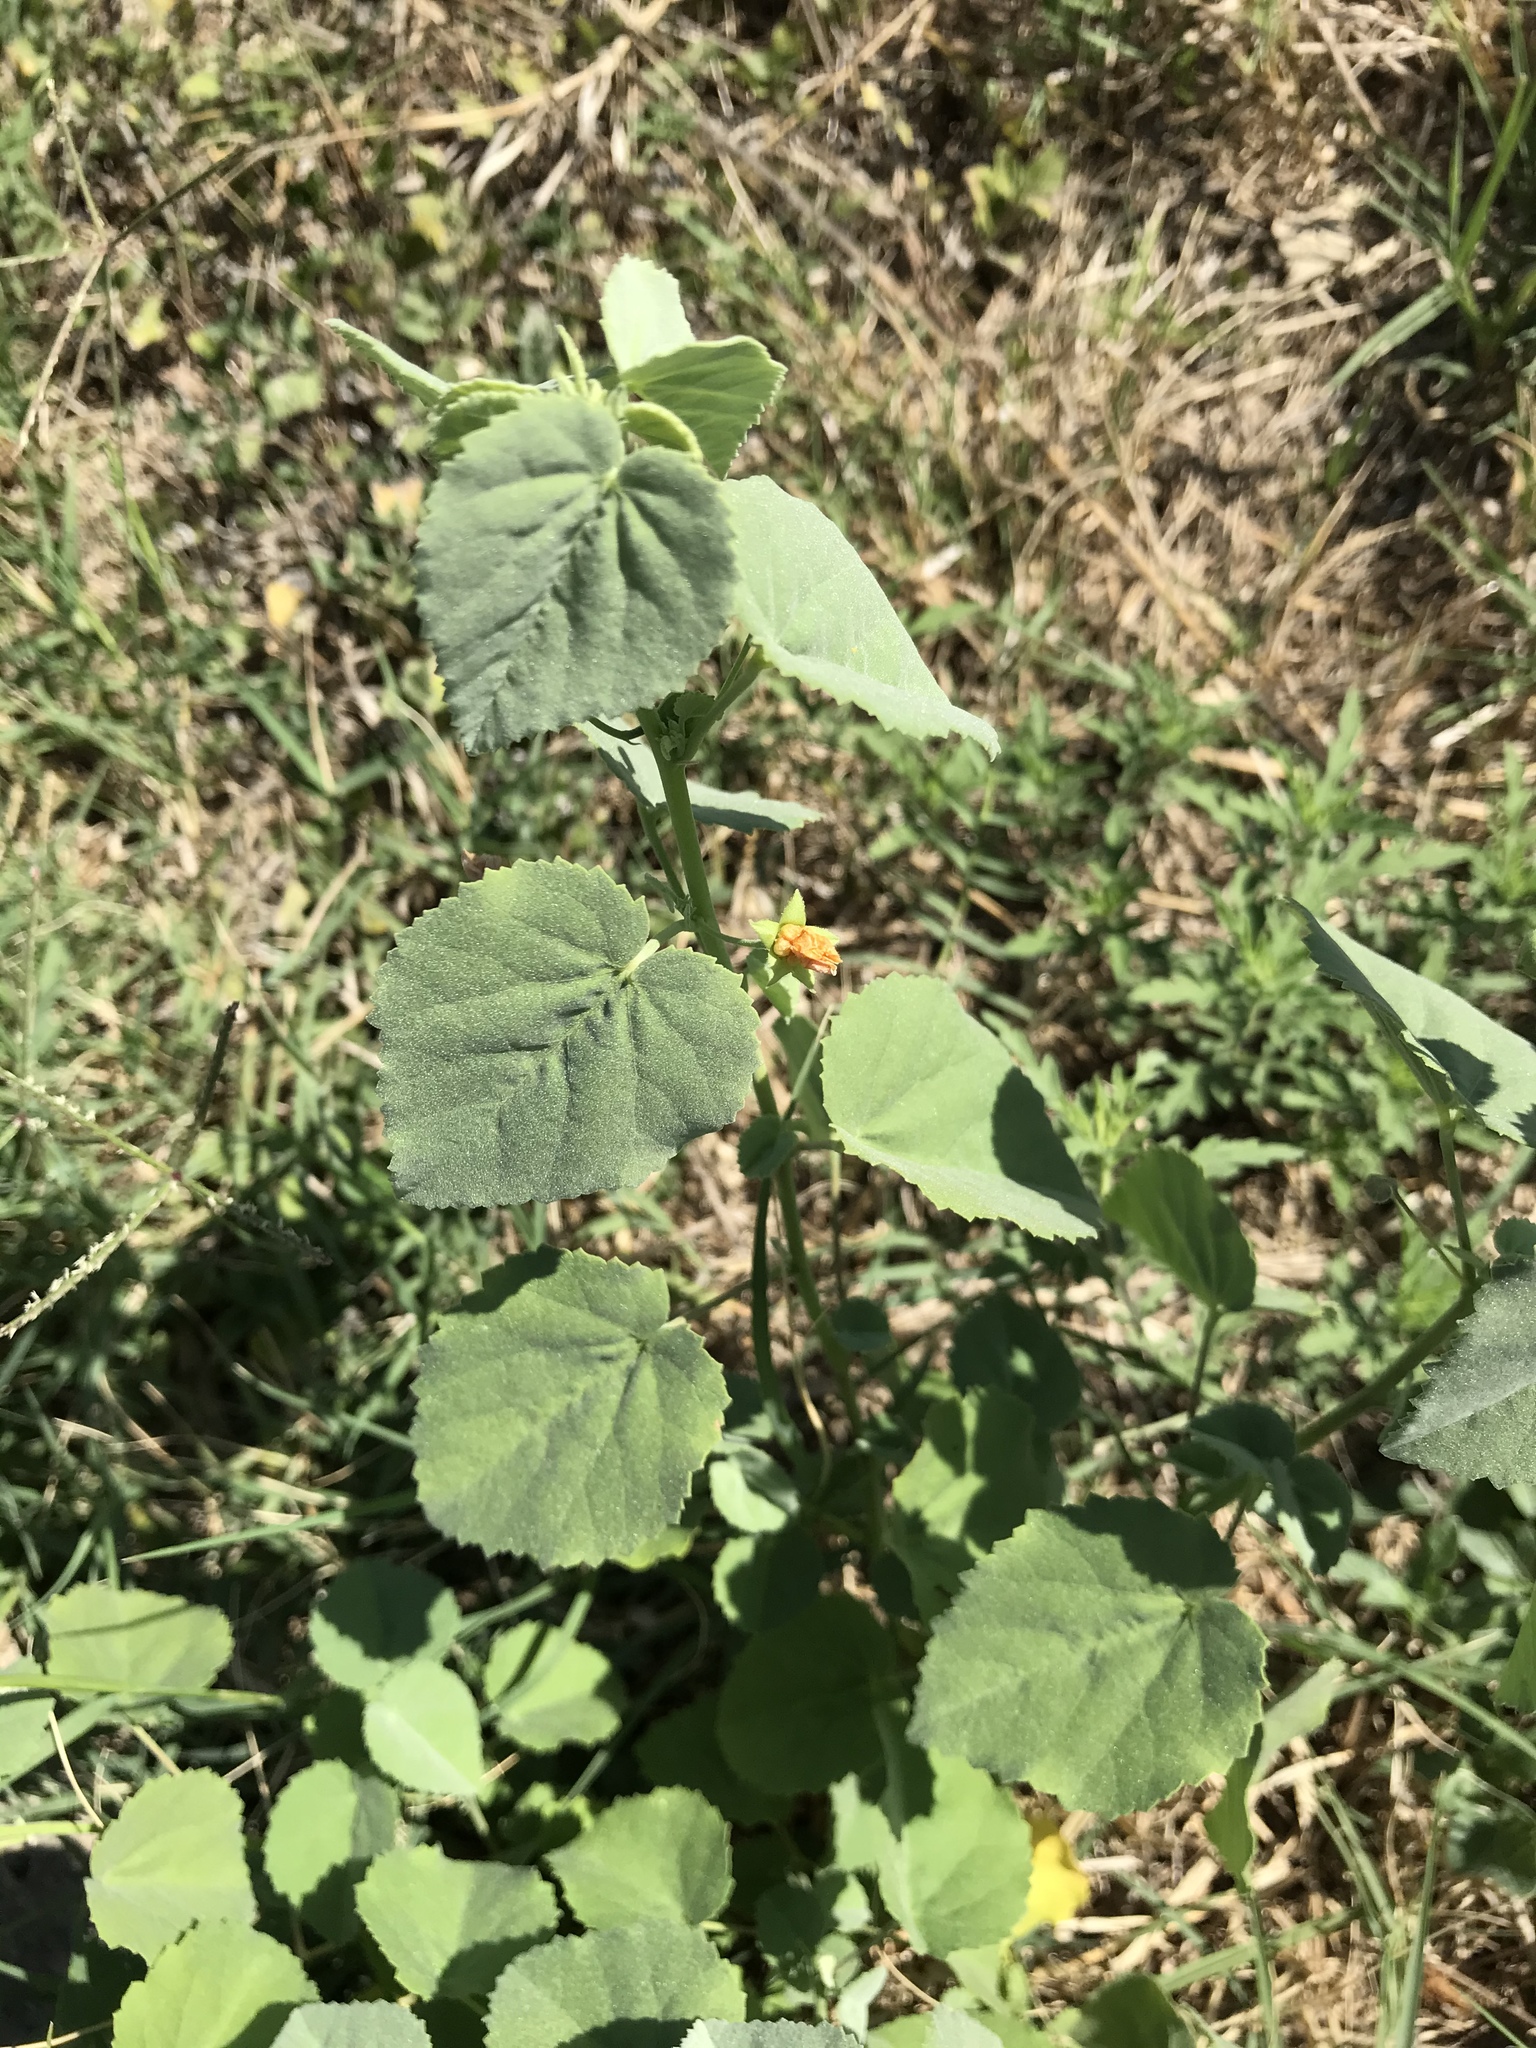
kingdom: Plantae
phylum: Tracheophyta
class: Magnoliopsida
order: Malvales
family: Malvaceae
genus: Abutilon
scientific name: Abutilon fruticosum
